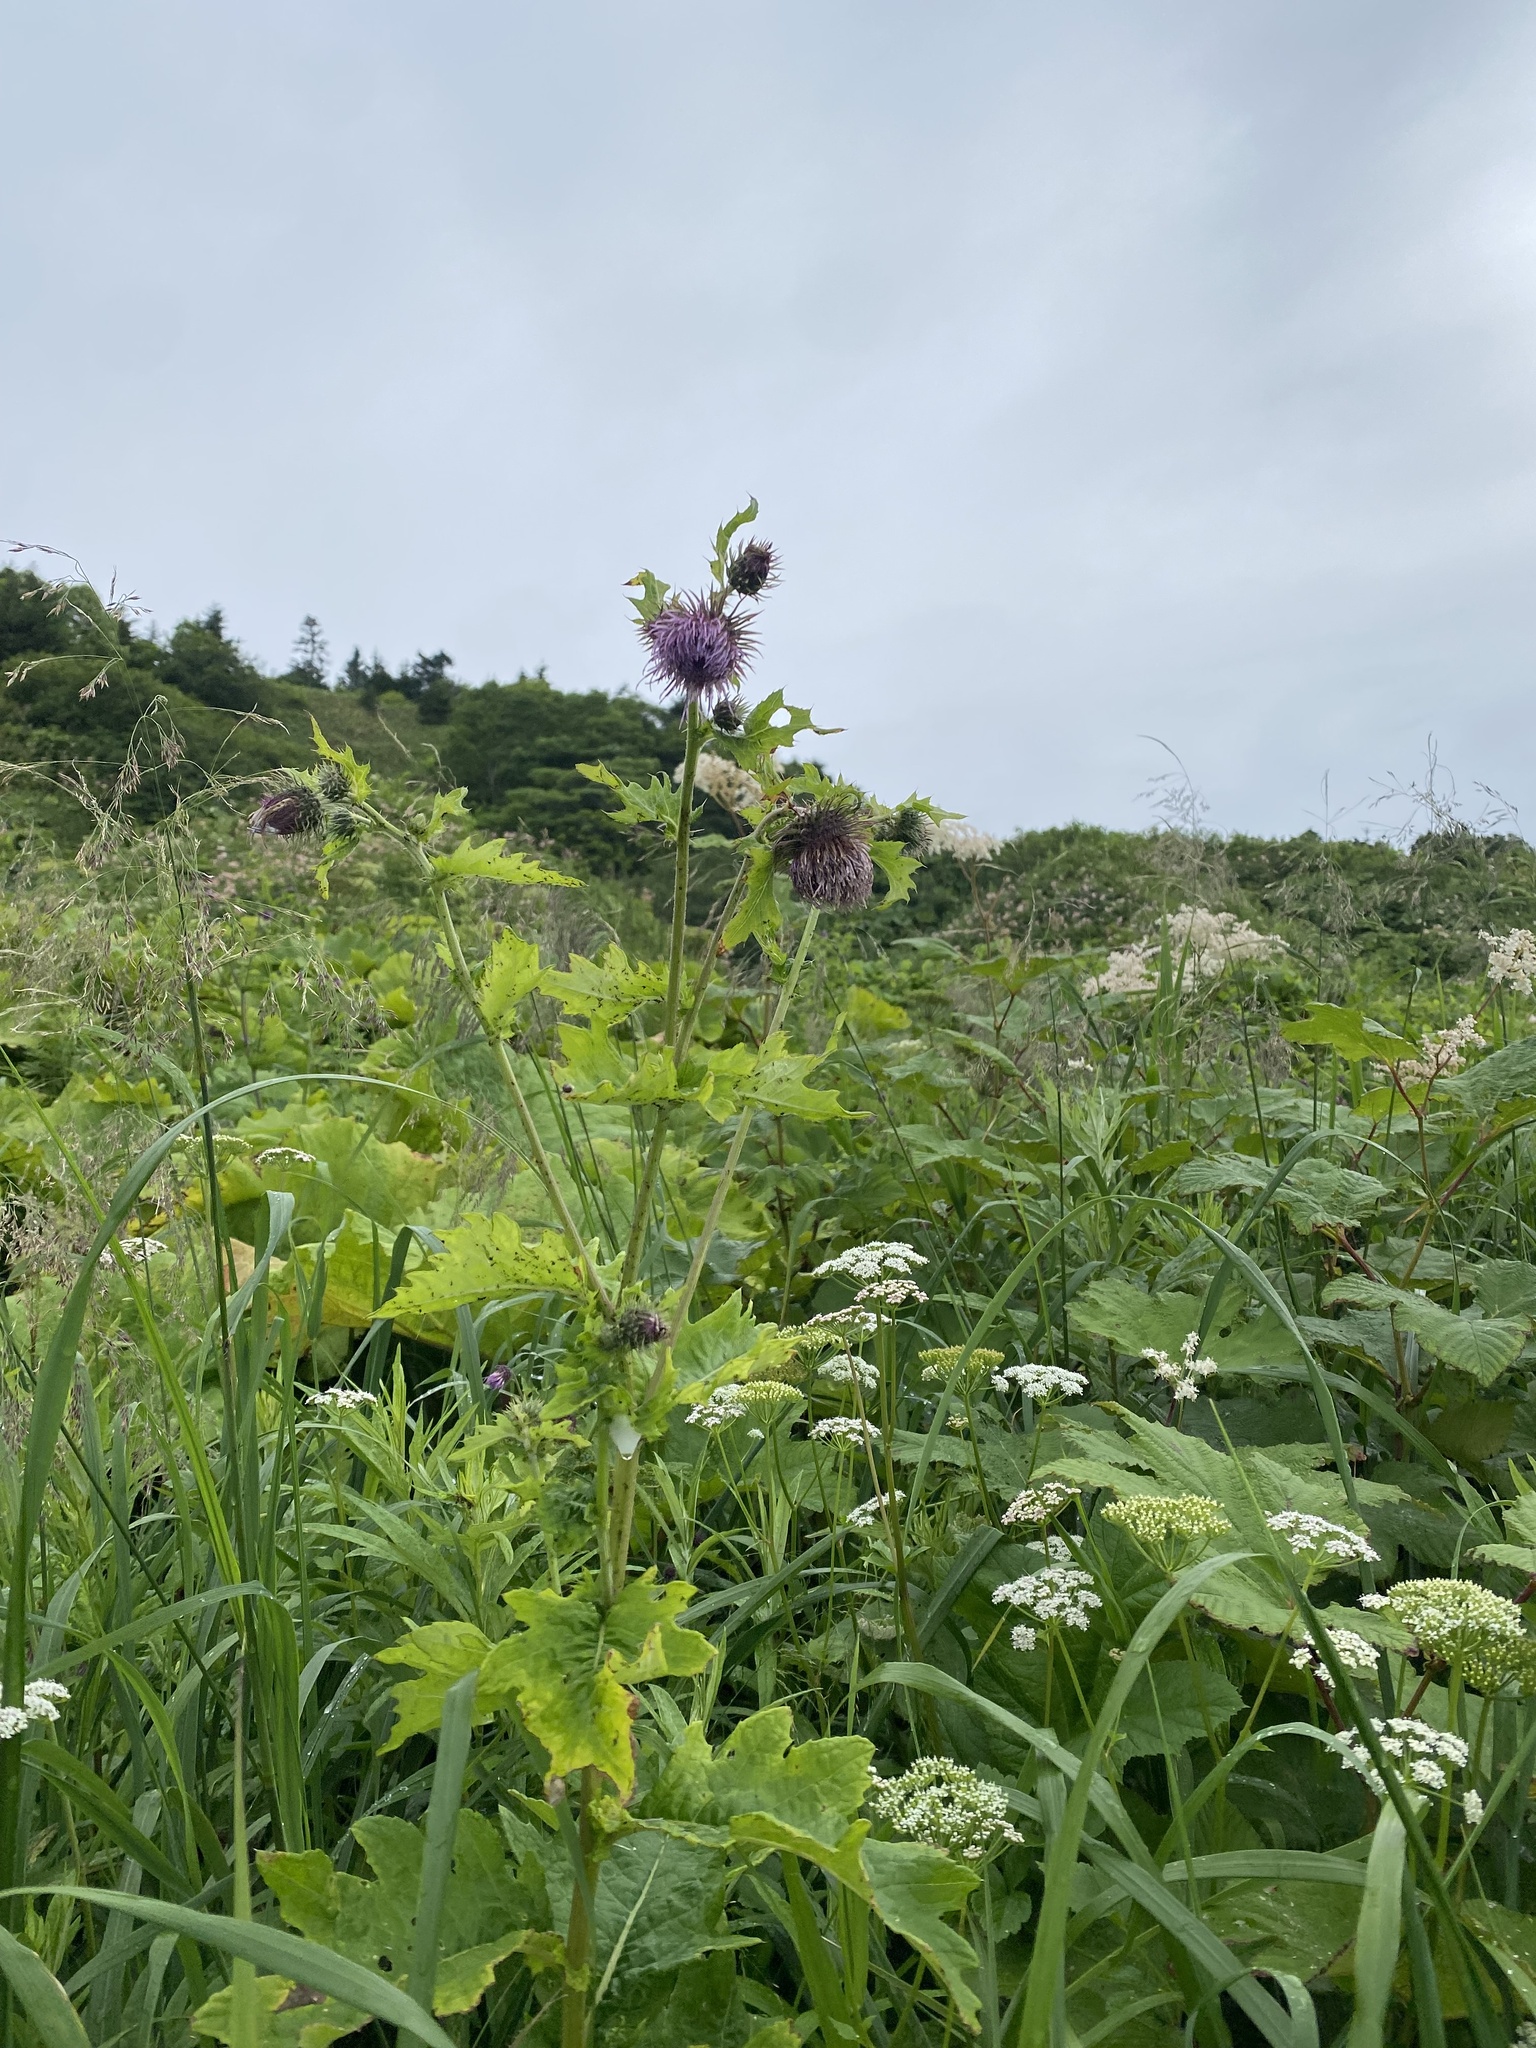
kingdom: Plantae
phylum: Tracheophyta
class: Magnoliopsida
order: Asterales
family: Asteraceae
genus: Cirsium
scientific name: Cirsium kamtschaticum
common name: Kamchatka thistle
